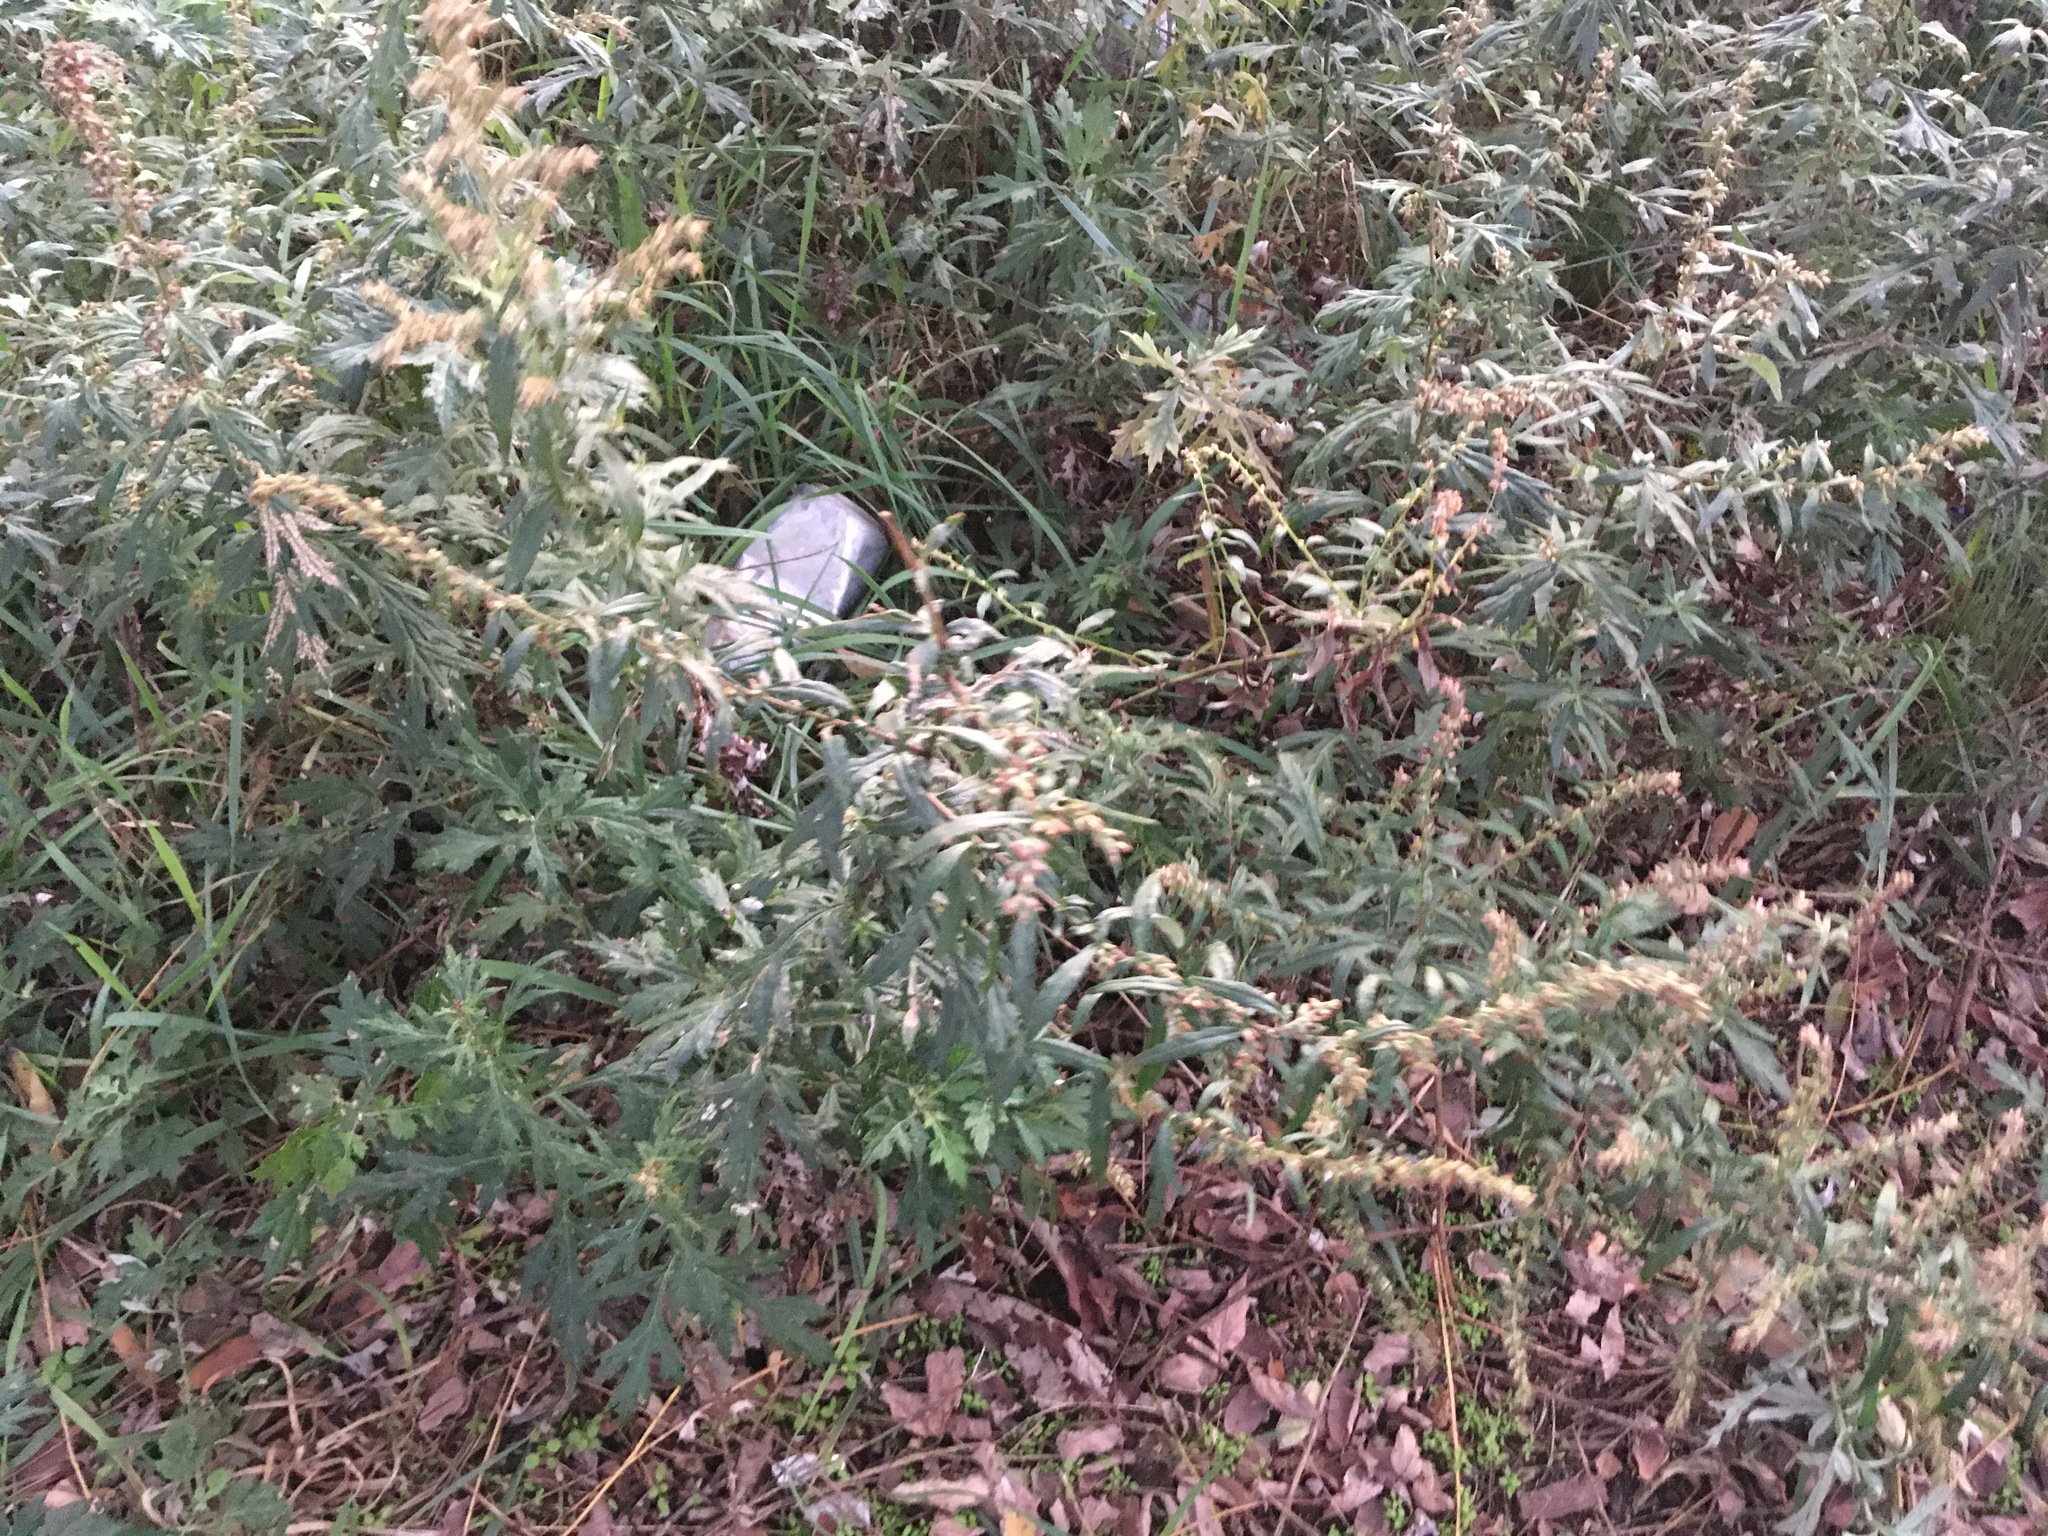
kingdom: Plantae
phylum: Tracheophyta
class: Magnoliopsida
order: Asterales
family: Asteraceae
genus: Artemisia
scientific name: Artemisia vulgaris
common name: Mugwort
